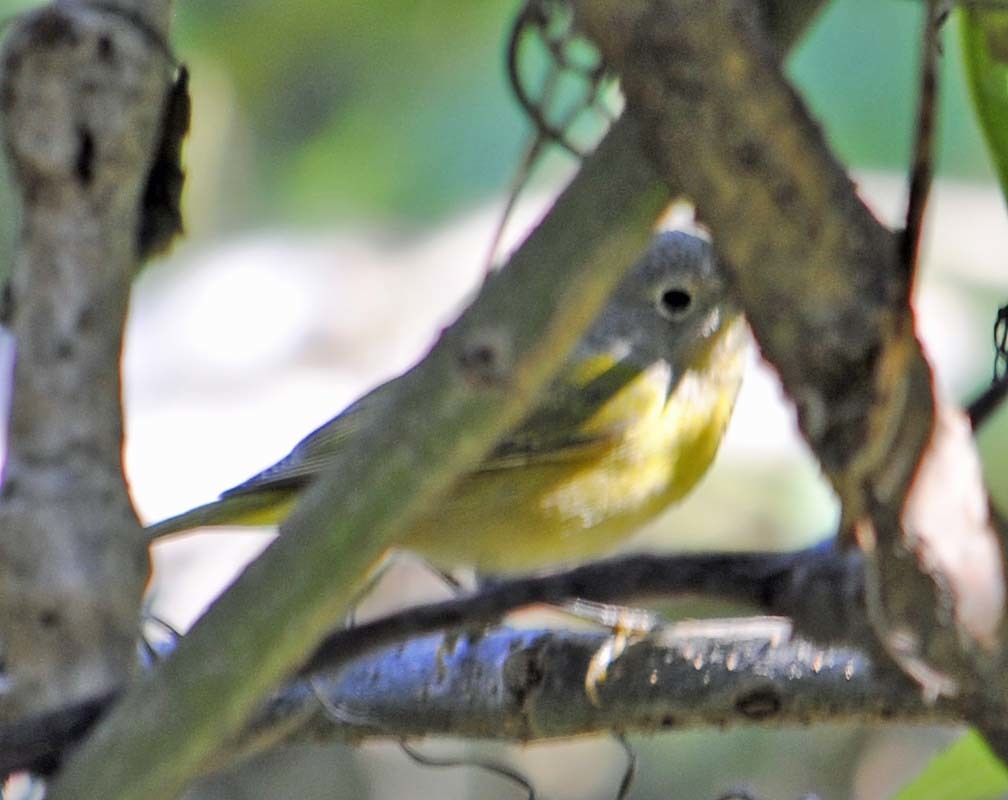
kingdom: Animalia
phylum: Chordata
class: Aves
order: Passeriformes
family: Parulidae
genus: Leiothlypis
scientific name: Leiothlypis ruficapilla
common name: Nashville warbler
